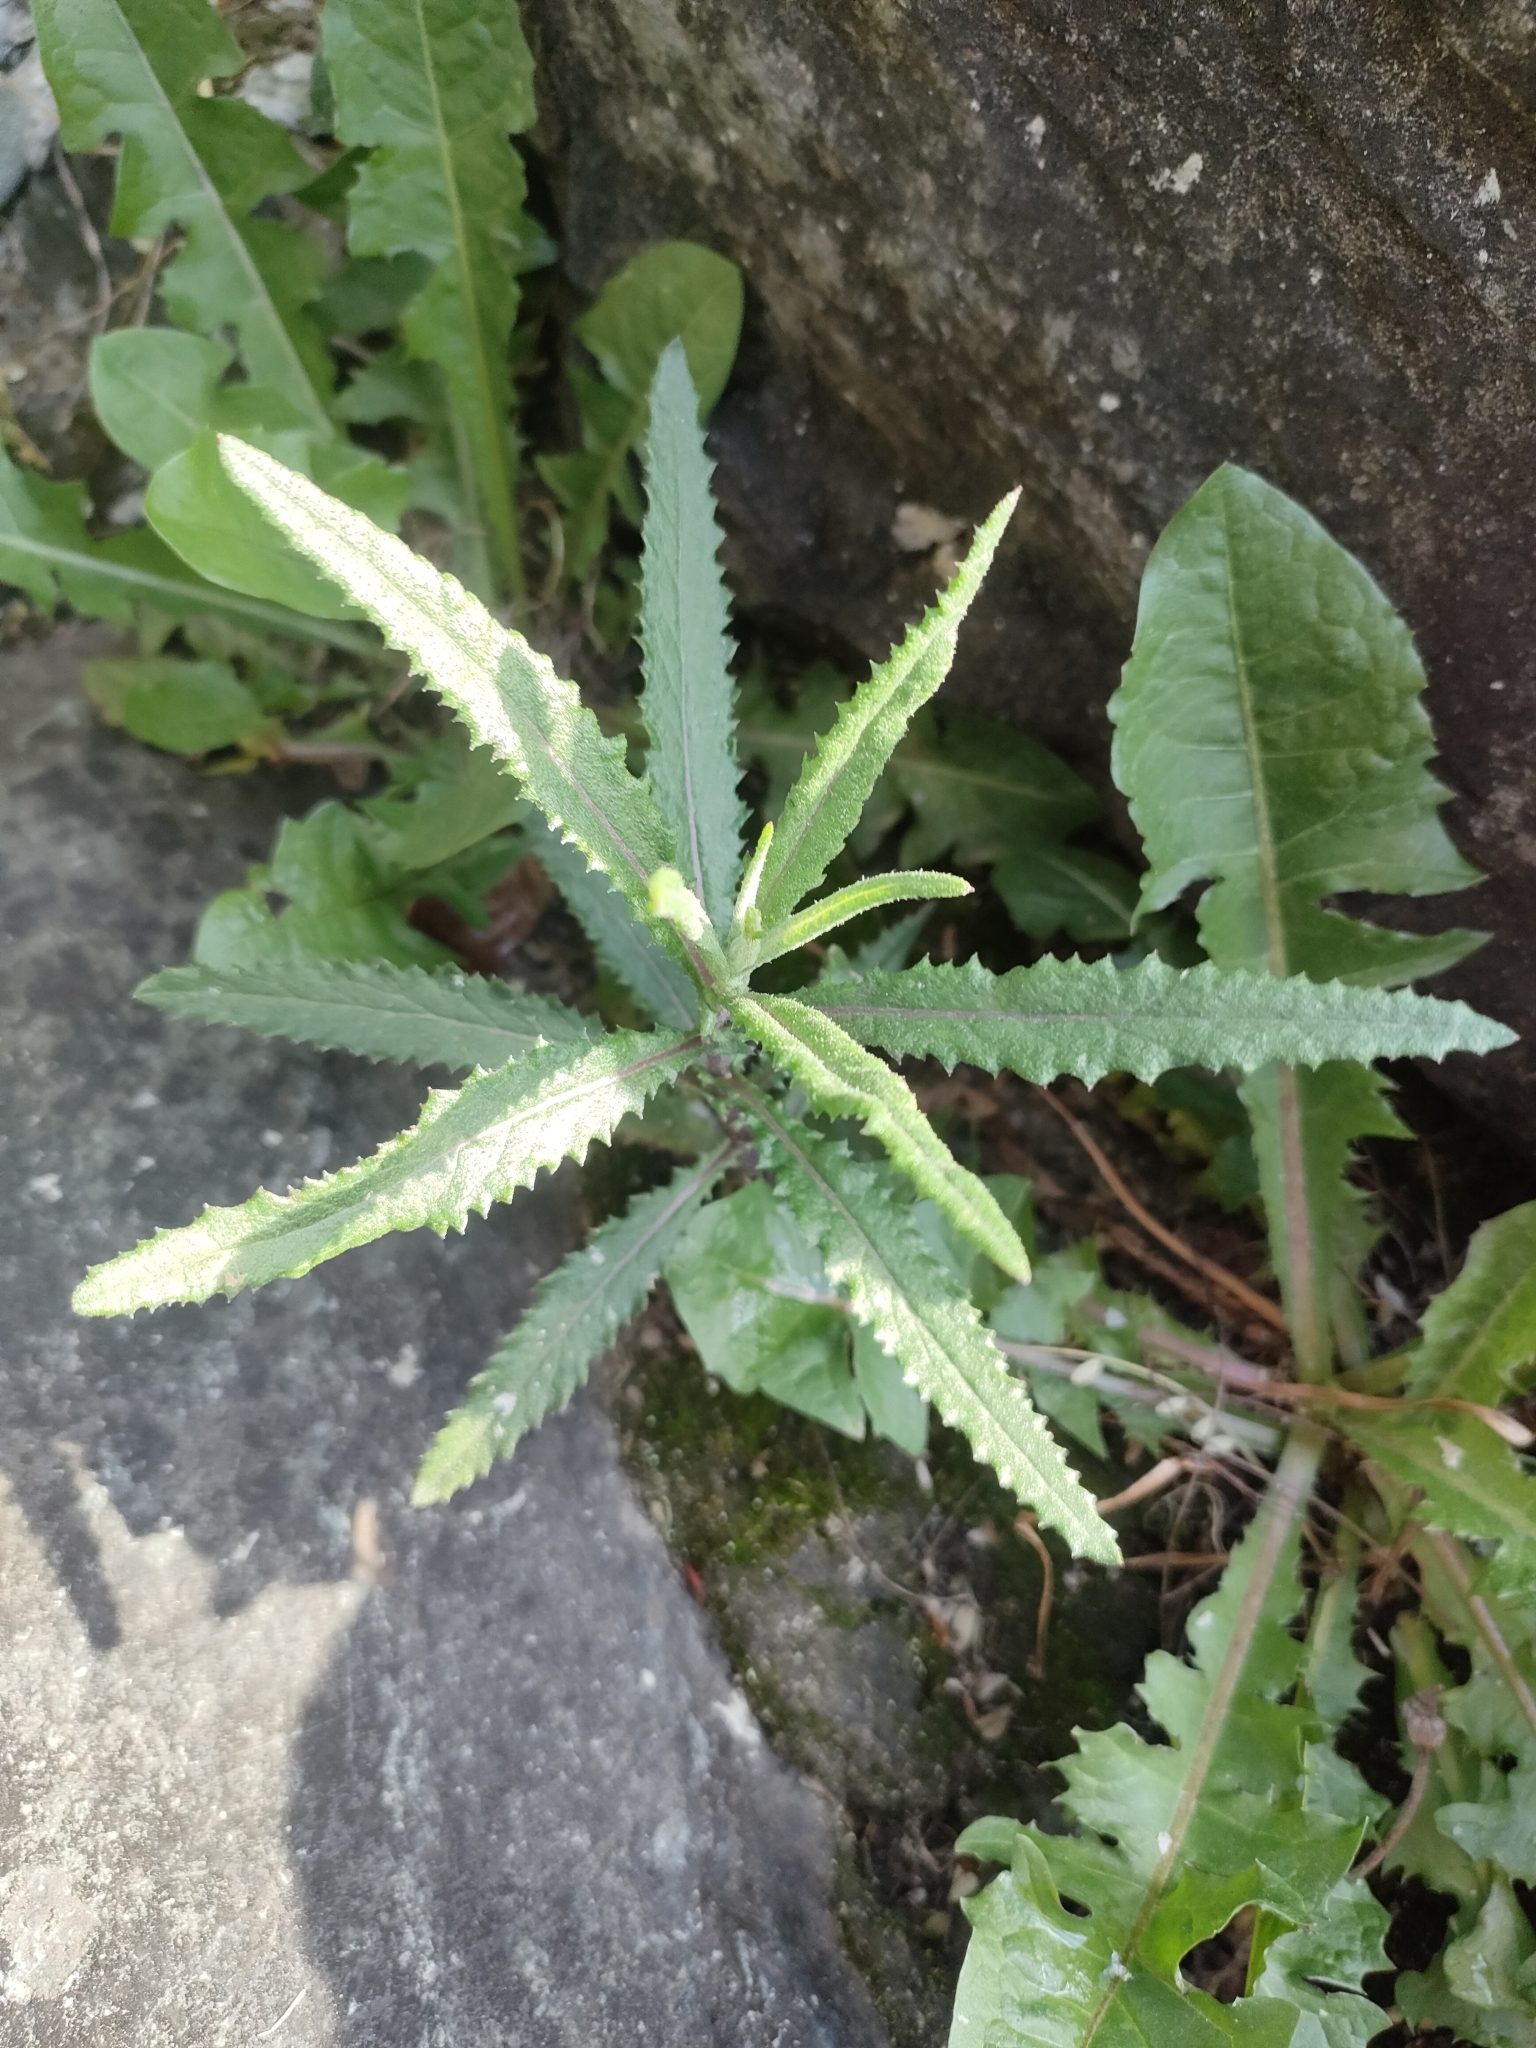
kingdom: Plantae
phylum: Tracheophyta
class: Magnoliopsida
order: Asterales
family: Asteraceae
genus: Senecio
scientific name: Senecio minimus
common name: Toothed fireweed
